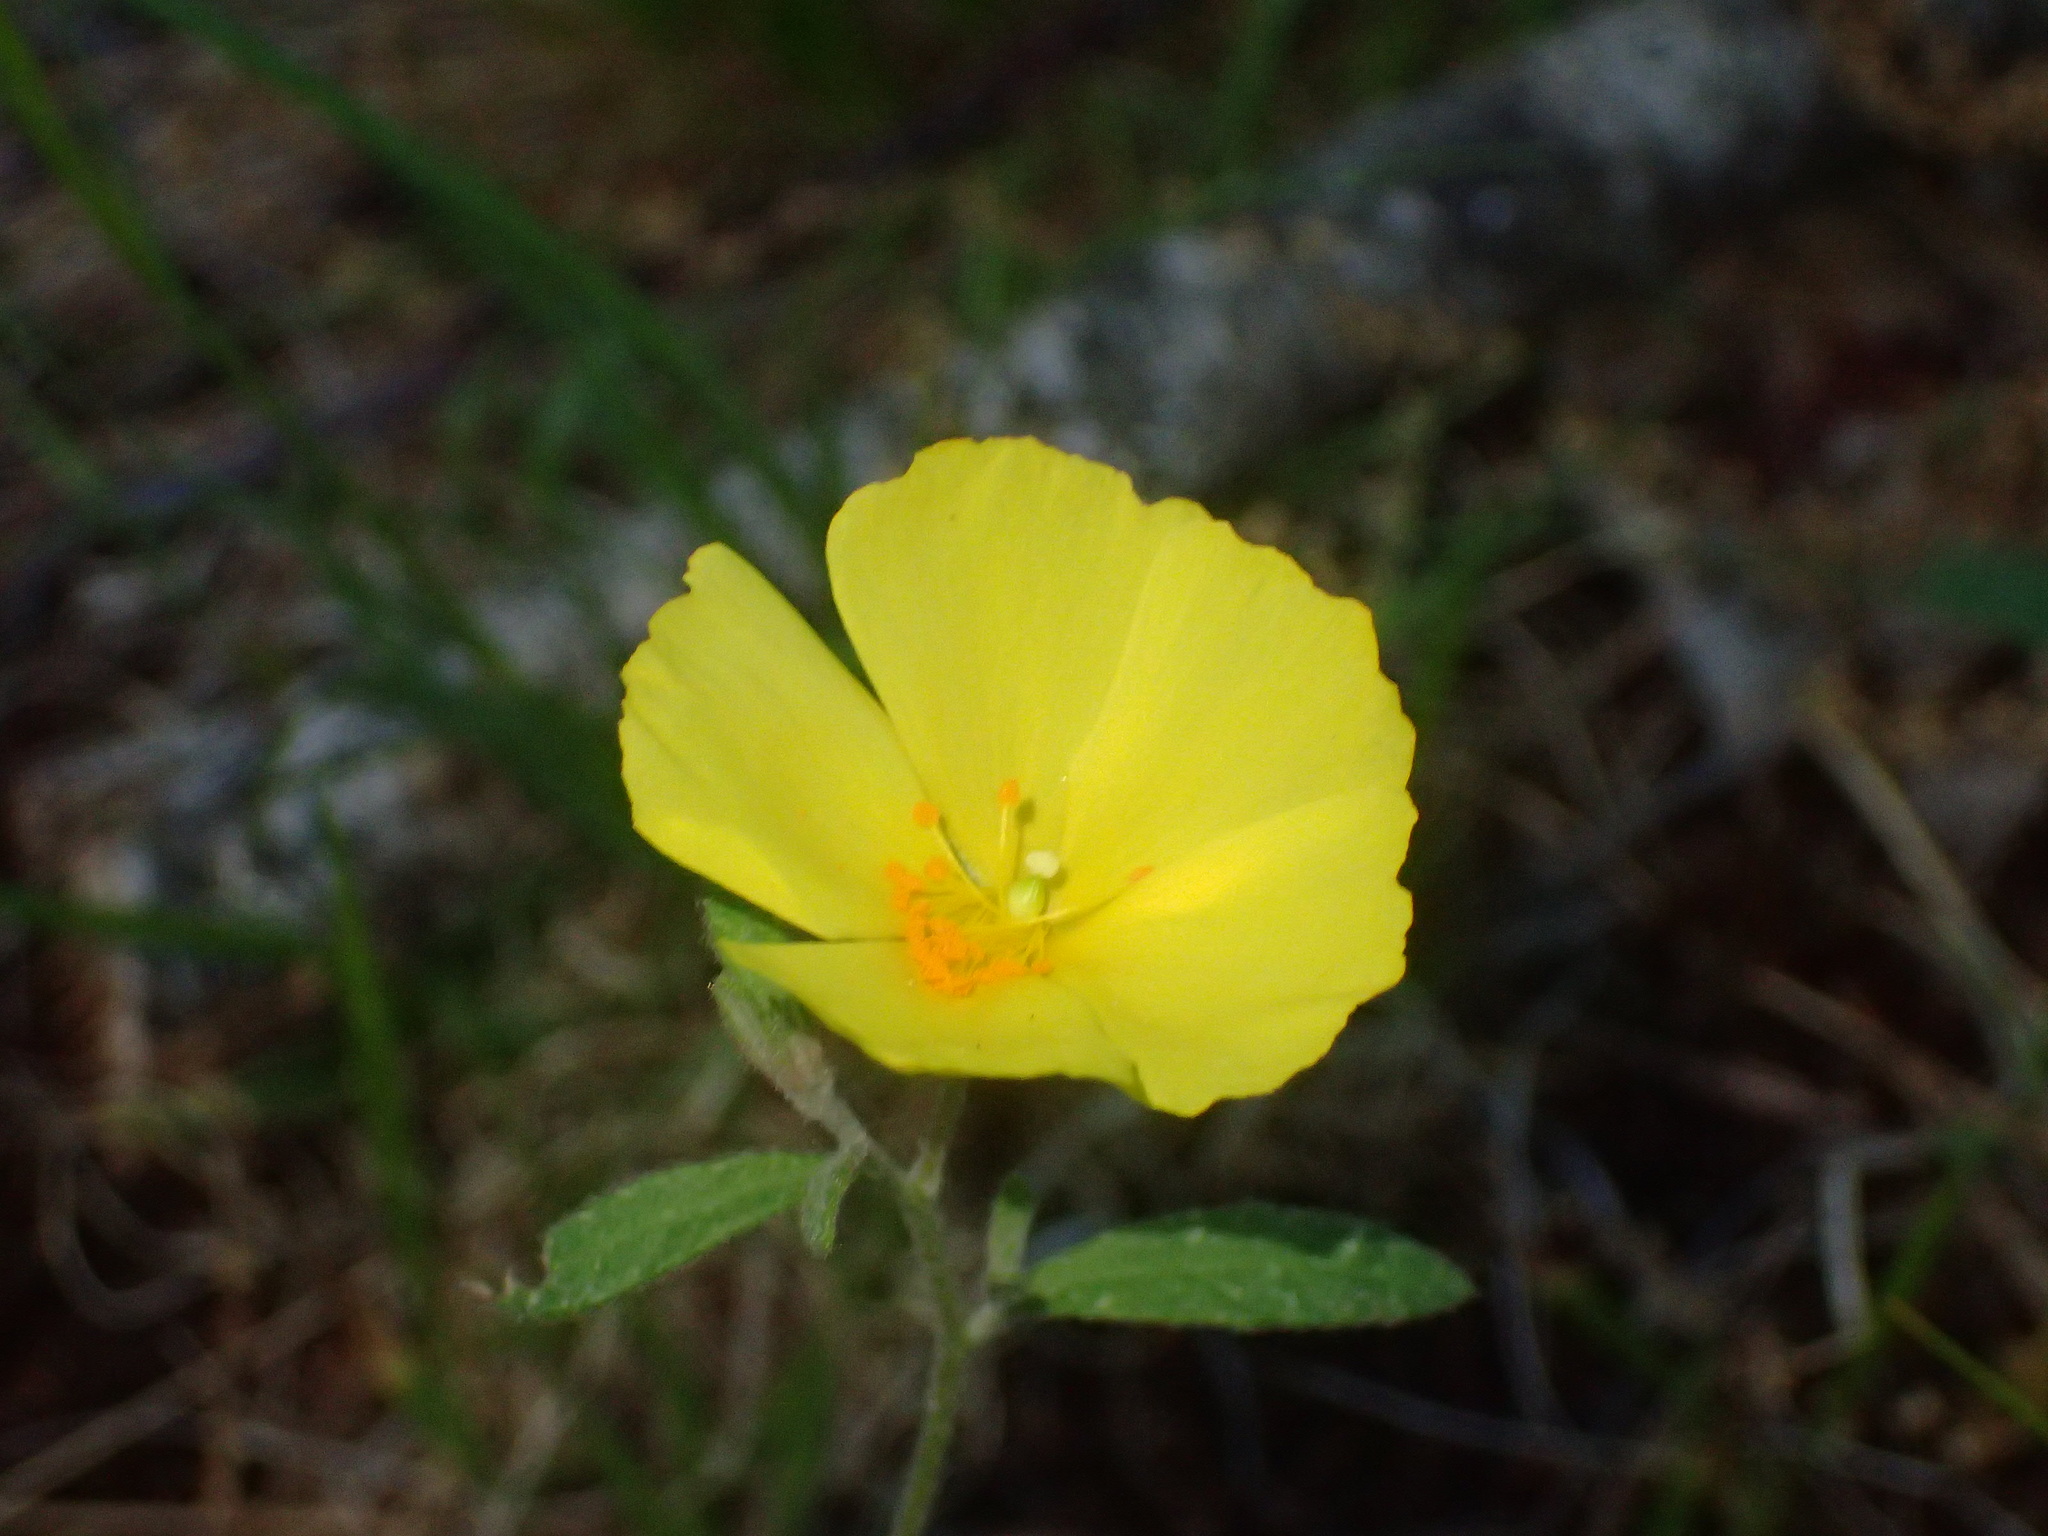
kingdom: Plantae
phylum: Tracheophyta
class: Magnoliopsida
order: Malvales
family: Cistaceae
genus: Crocanthemum
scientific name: Crocanthemum canadense
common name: Canada frostweed
